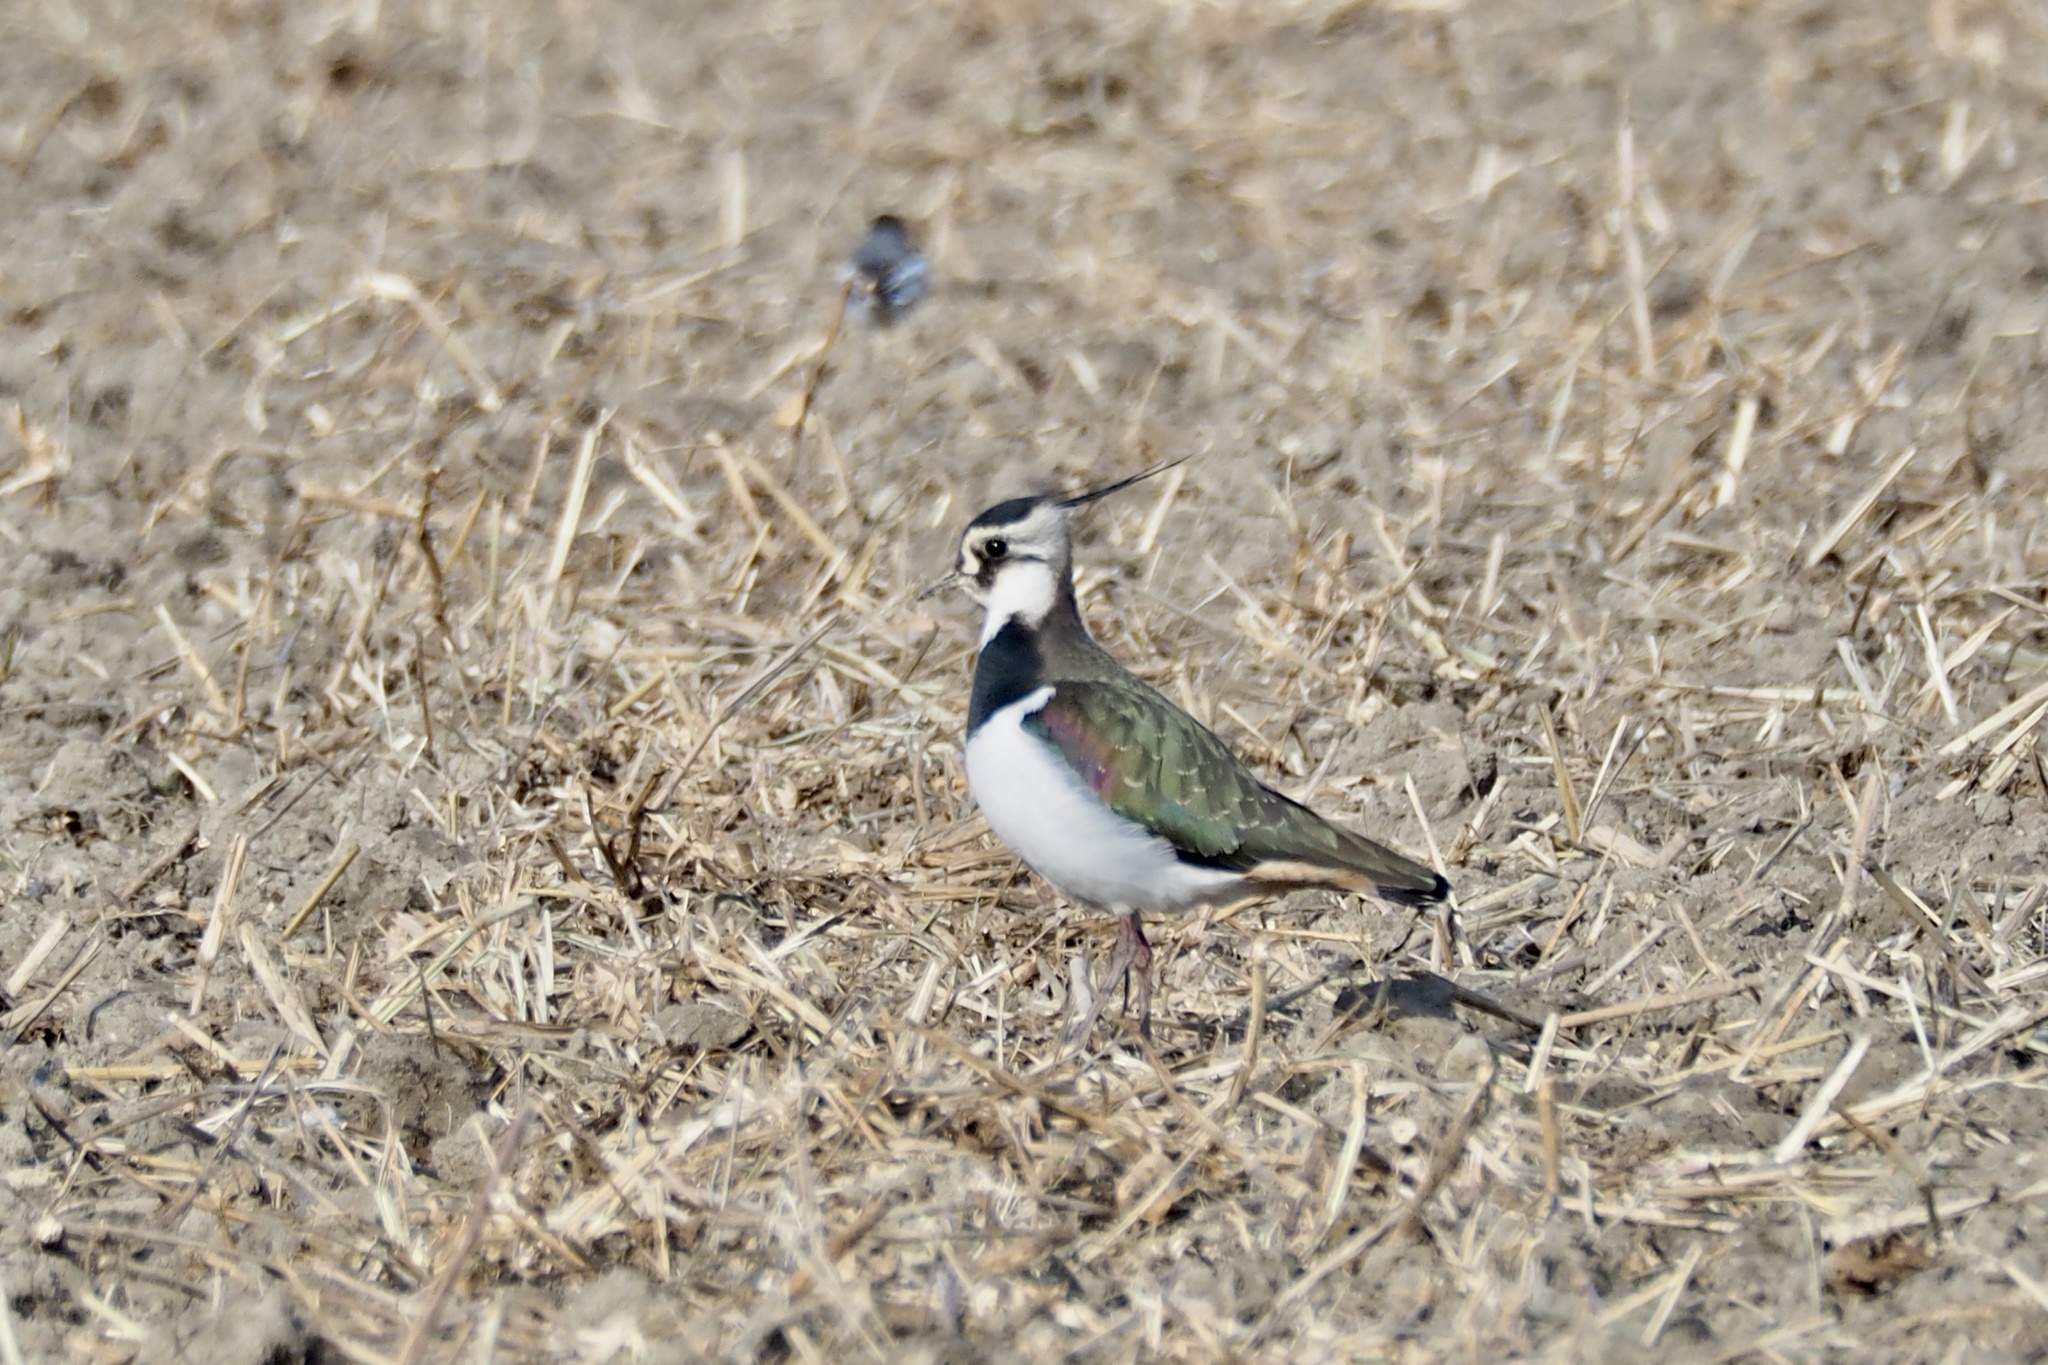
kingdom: Animalia
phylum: Chordata
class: Aves
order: Charadriiformes
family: Charadriidae
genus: Vanellus
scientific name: Vanellus vanellus
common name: Northern lapwing
